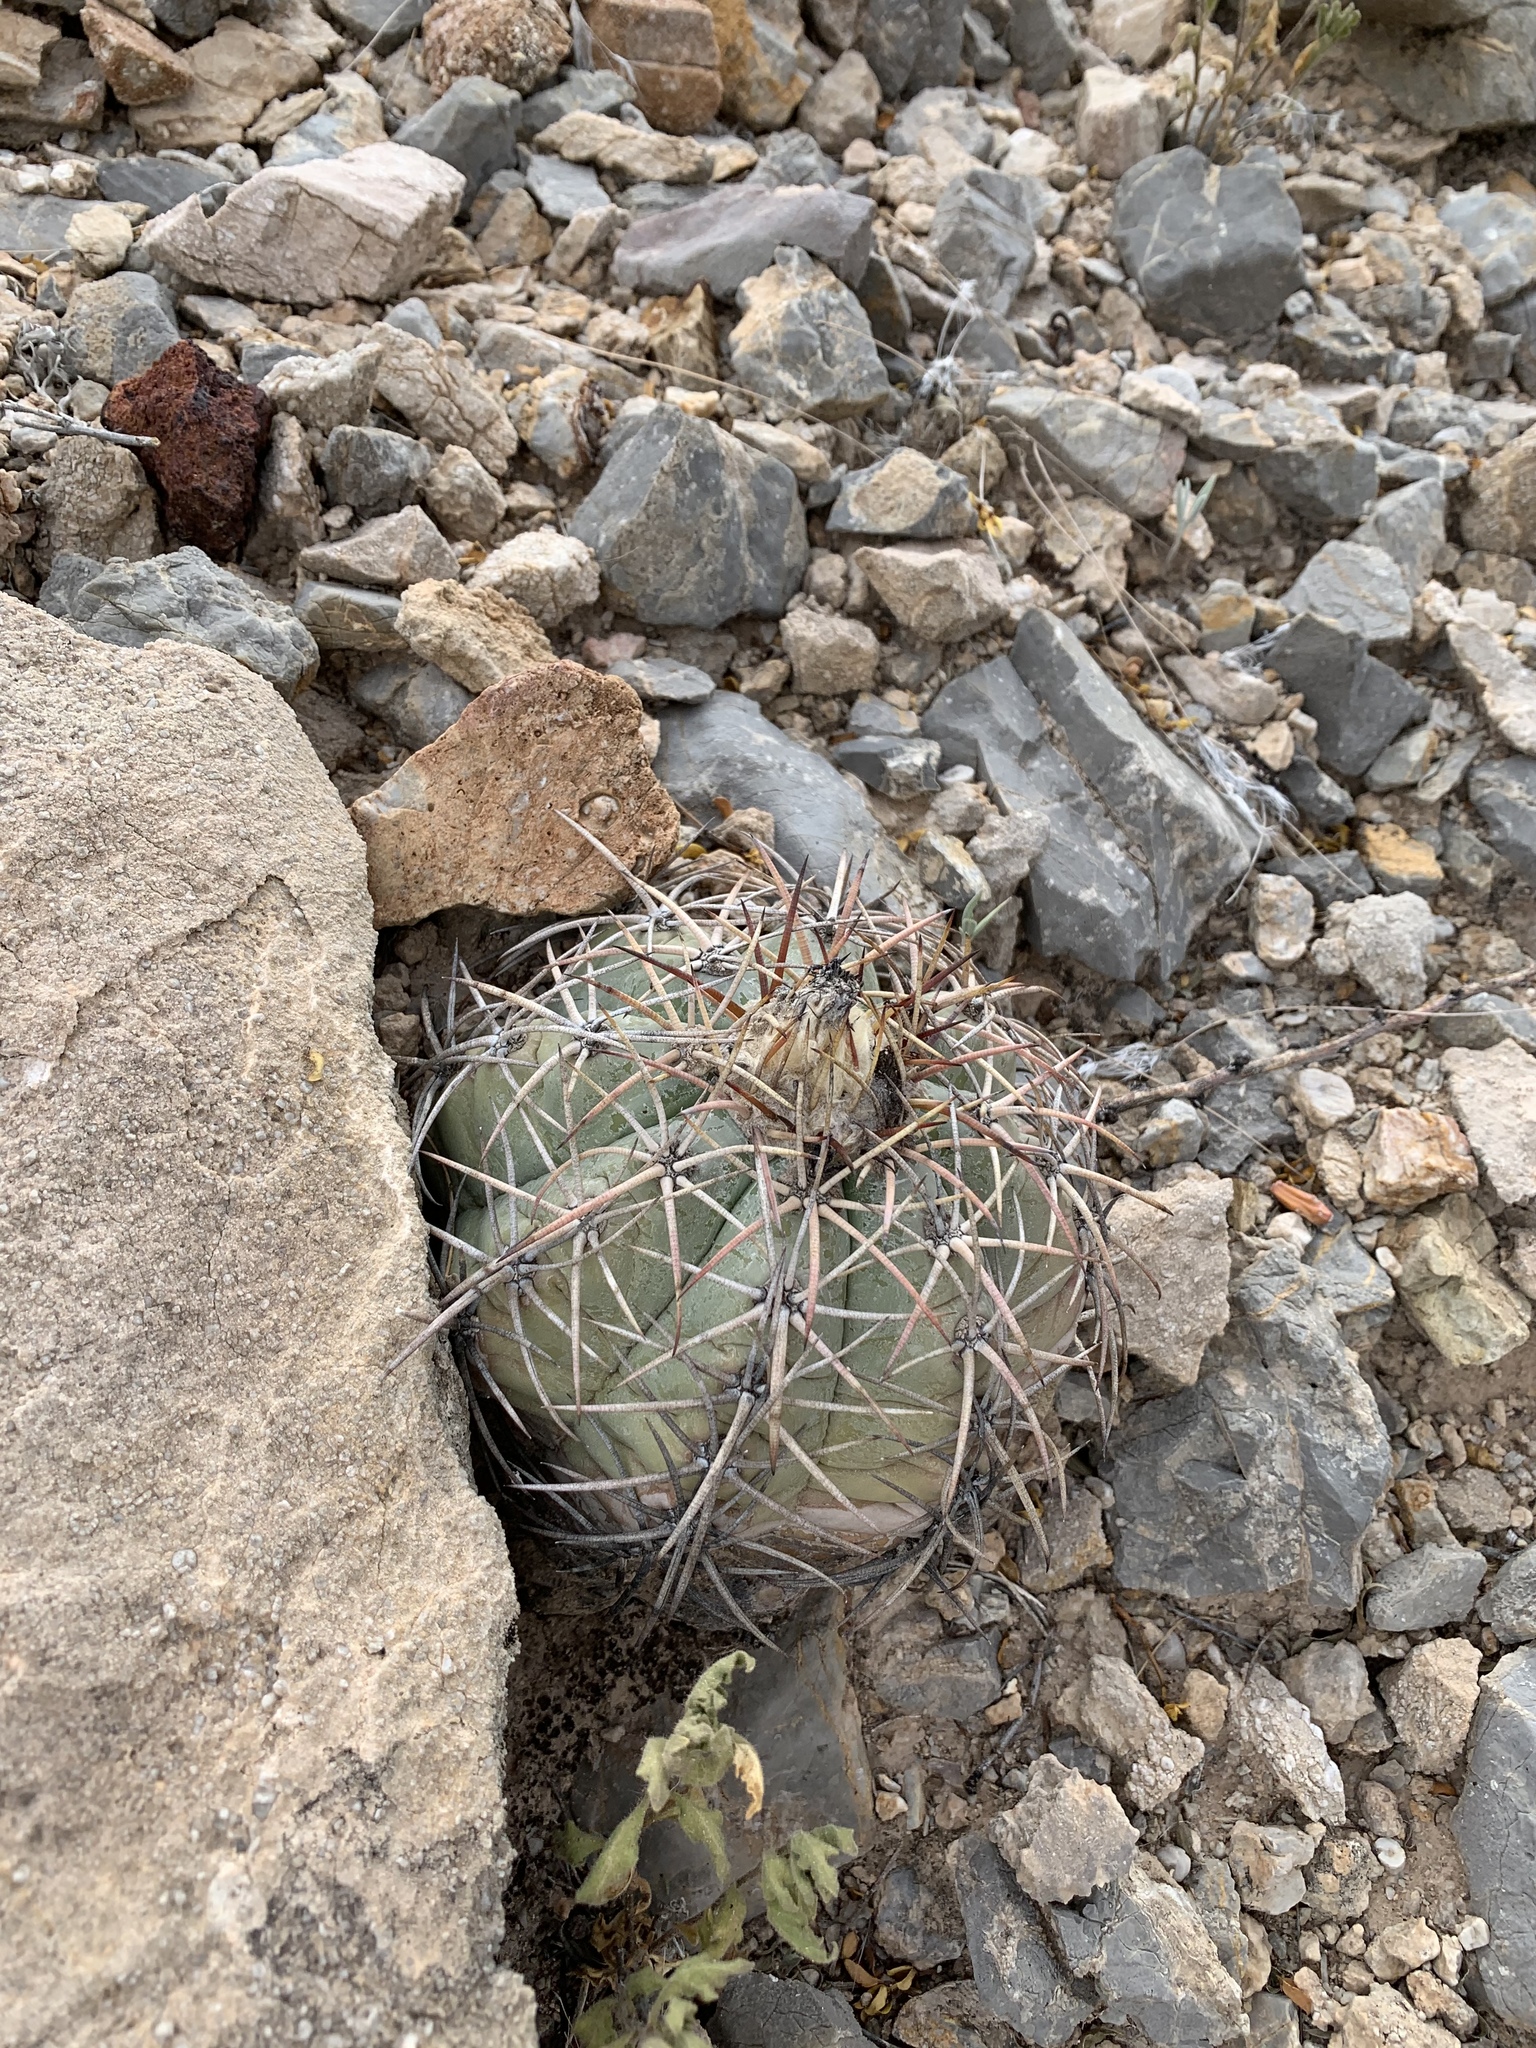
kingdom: Plantae
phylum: Tracheophyta
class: Magnoliopsida
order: Caryophyllales
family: Cactaceae
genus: Echinocactus
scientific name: Echinocactus horizonthalonius
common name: Devilshead
